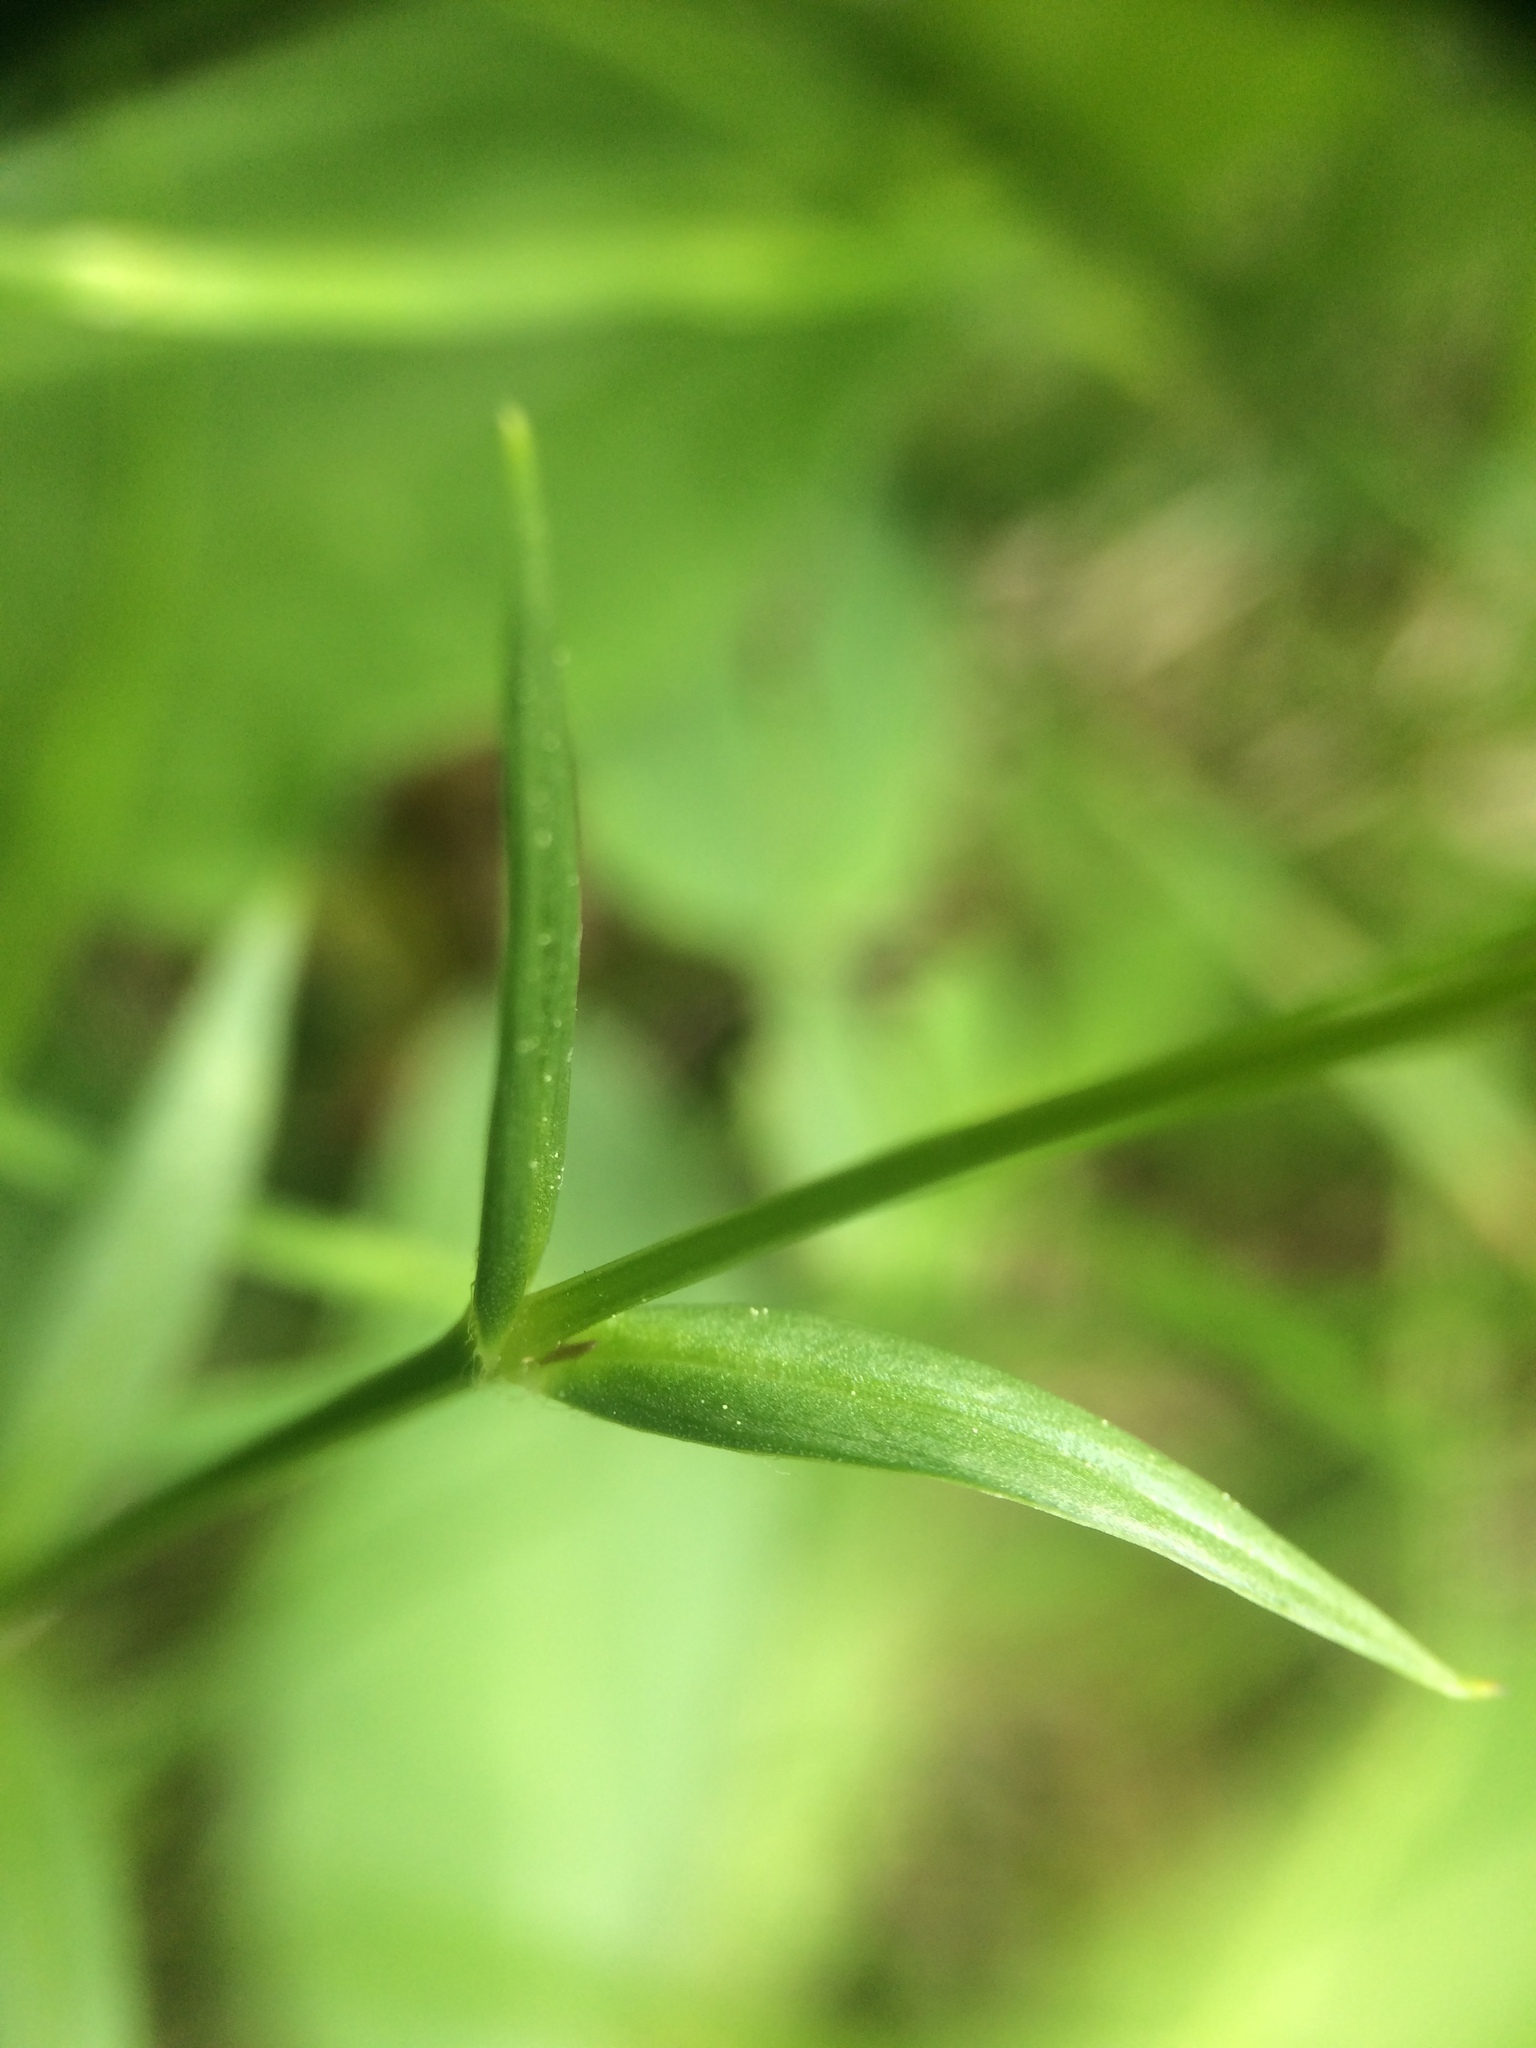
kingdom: Plantae
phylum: Tracheophyta
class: Magnoliopsida
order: Caryophyllales
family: Caryophyllaceae
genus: Stellaria
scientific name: Stellaria graminea
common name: Grass-like starwort
